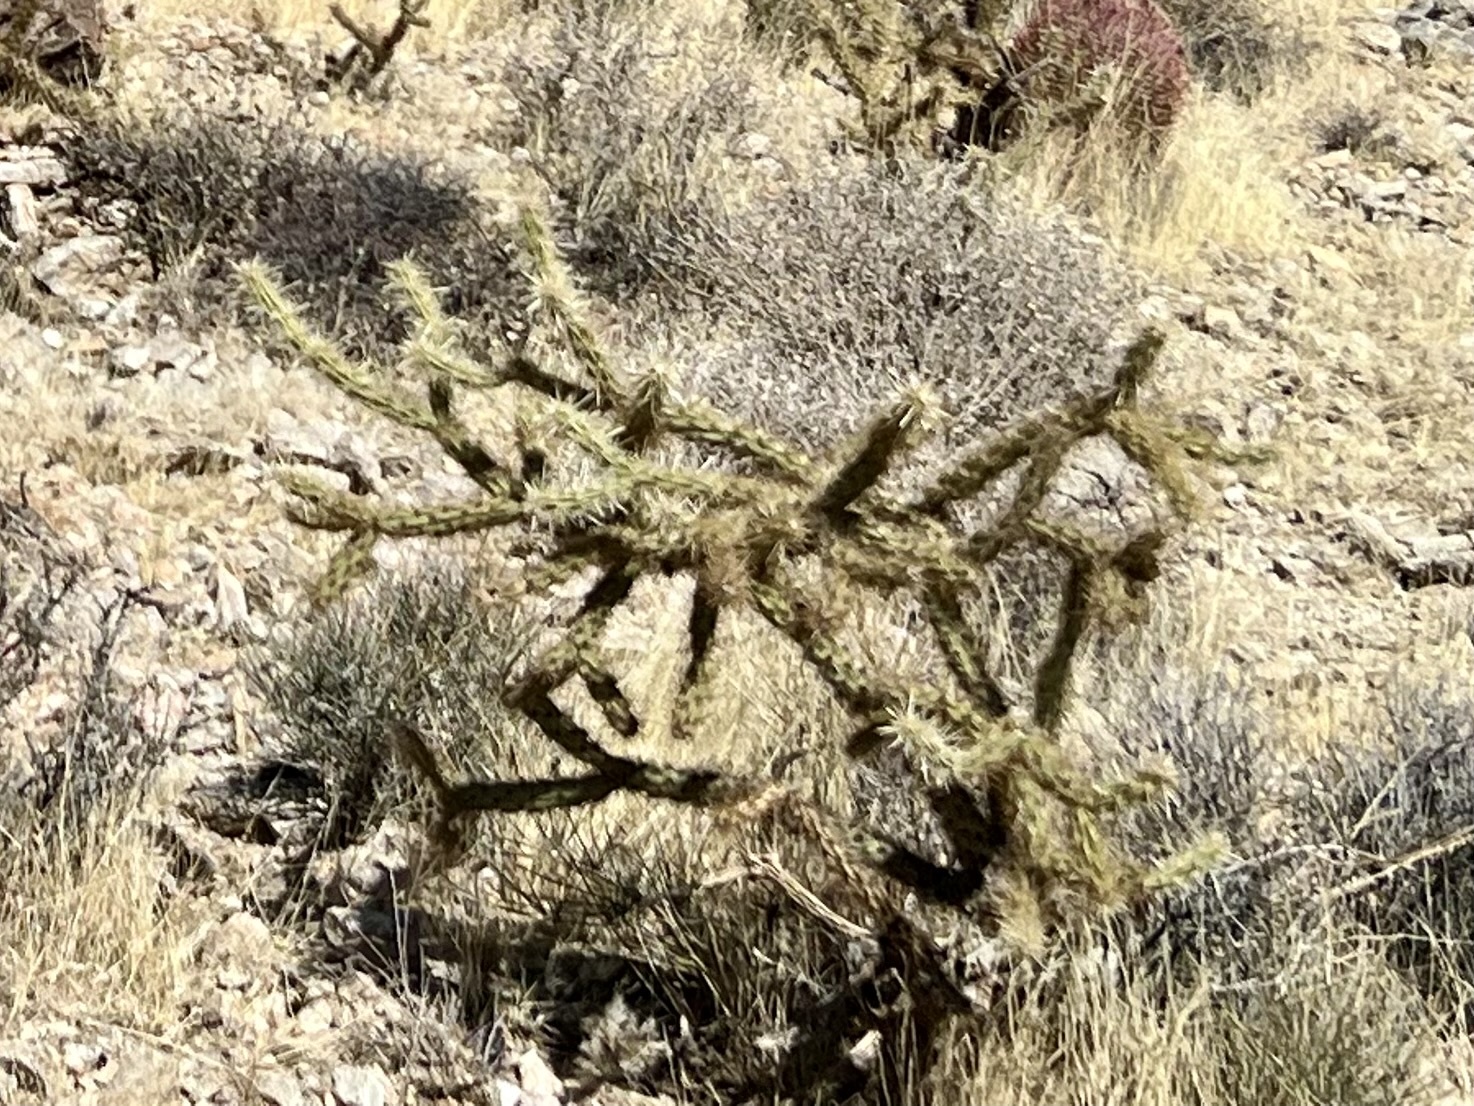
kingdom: Plantae
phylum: Tracheophyta
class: Magnoliopsida
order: Caryophyllales
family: Cactaceae
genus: Cylindropuntia
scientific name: Cylindropuntia acanthocarpa
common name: Buckhorn cholla
